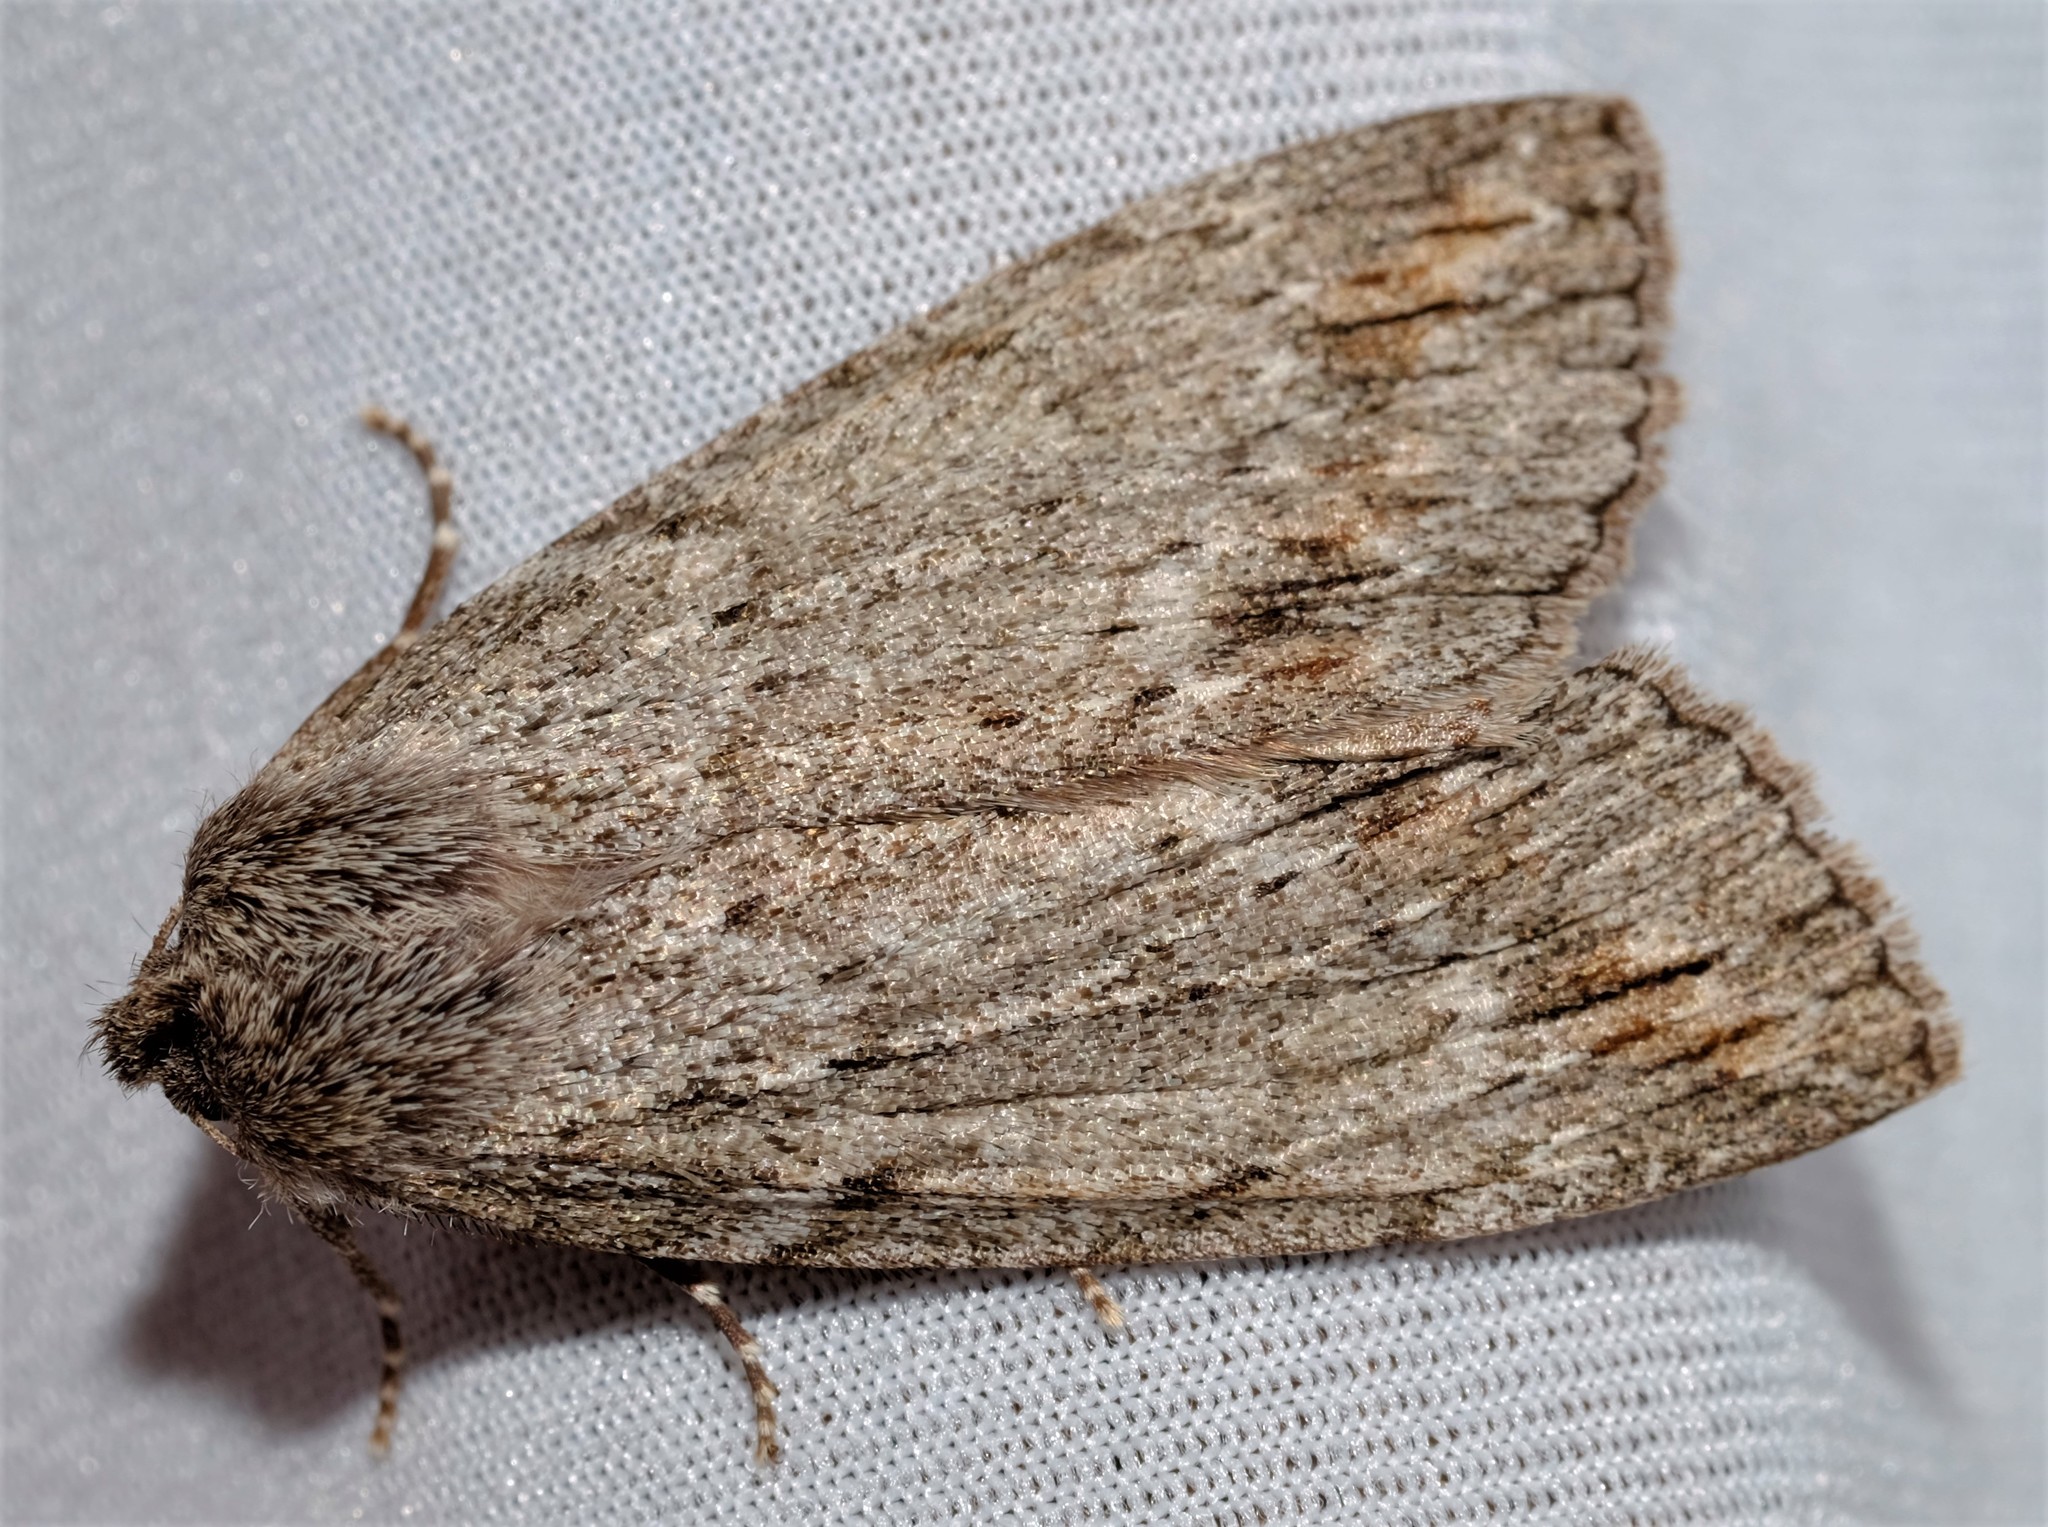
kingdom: Animalia
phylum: Arthropoda
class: Insecta
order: Lepidoptera
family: Geometridae
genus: Chlenias
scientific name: Chlenias banksiaria
